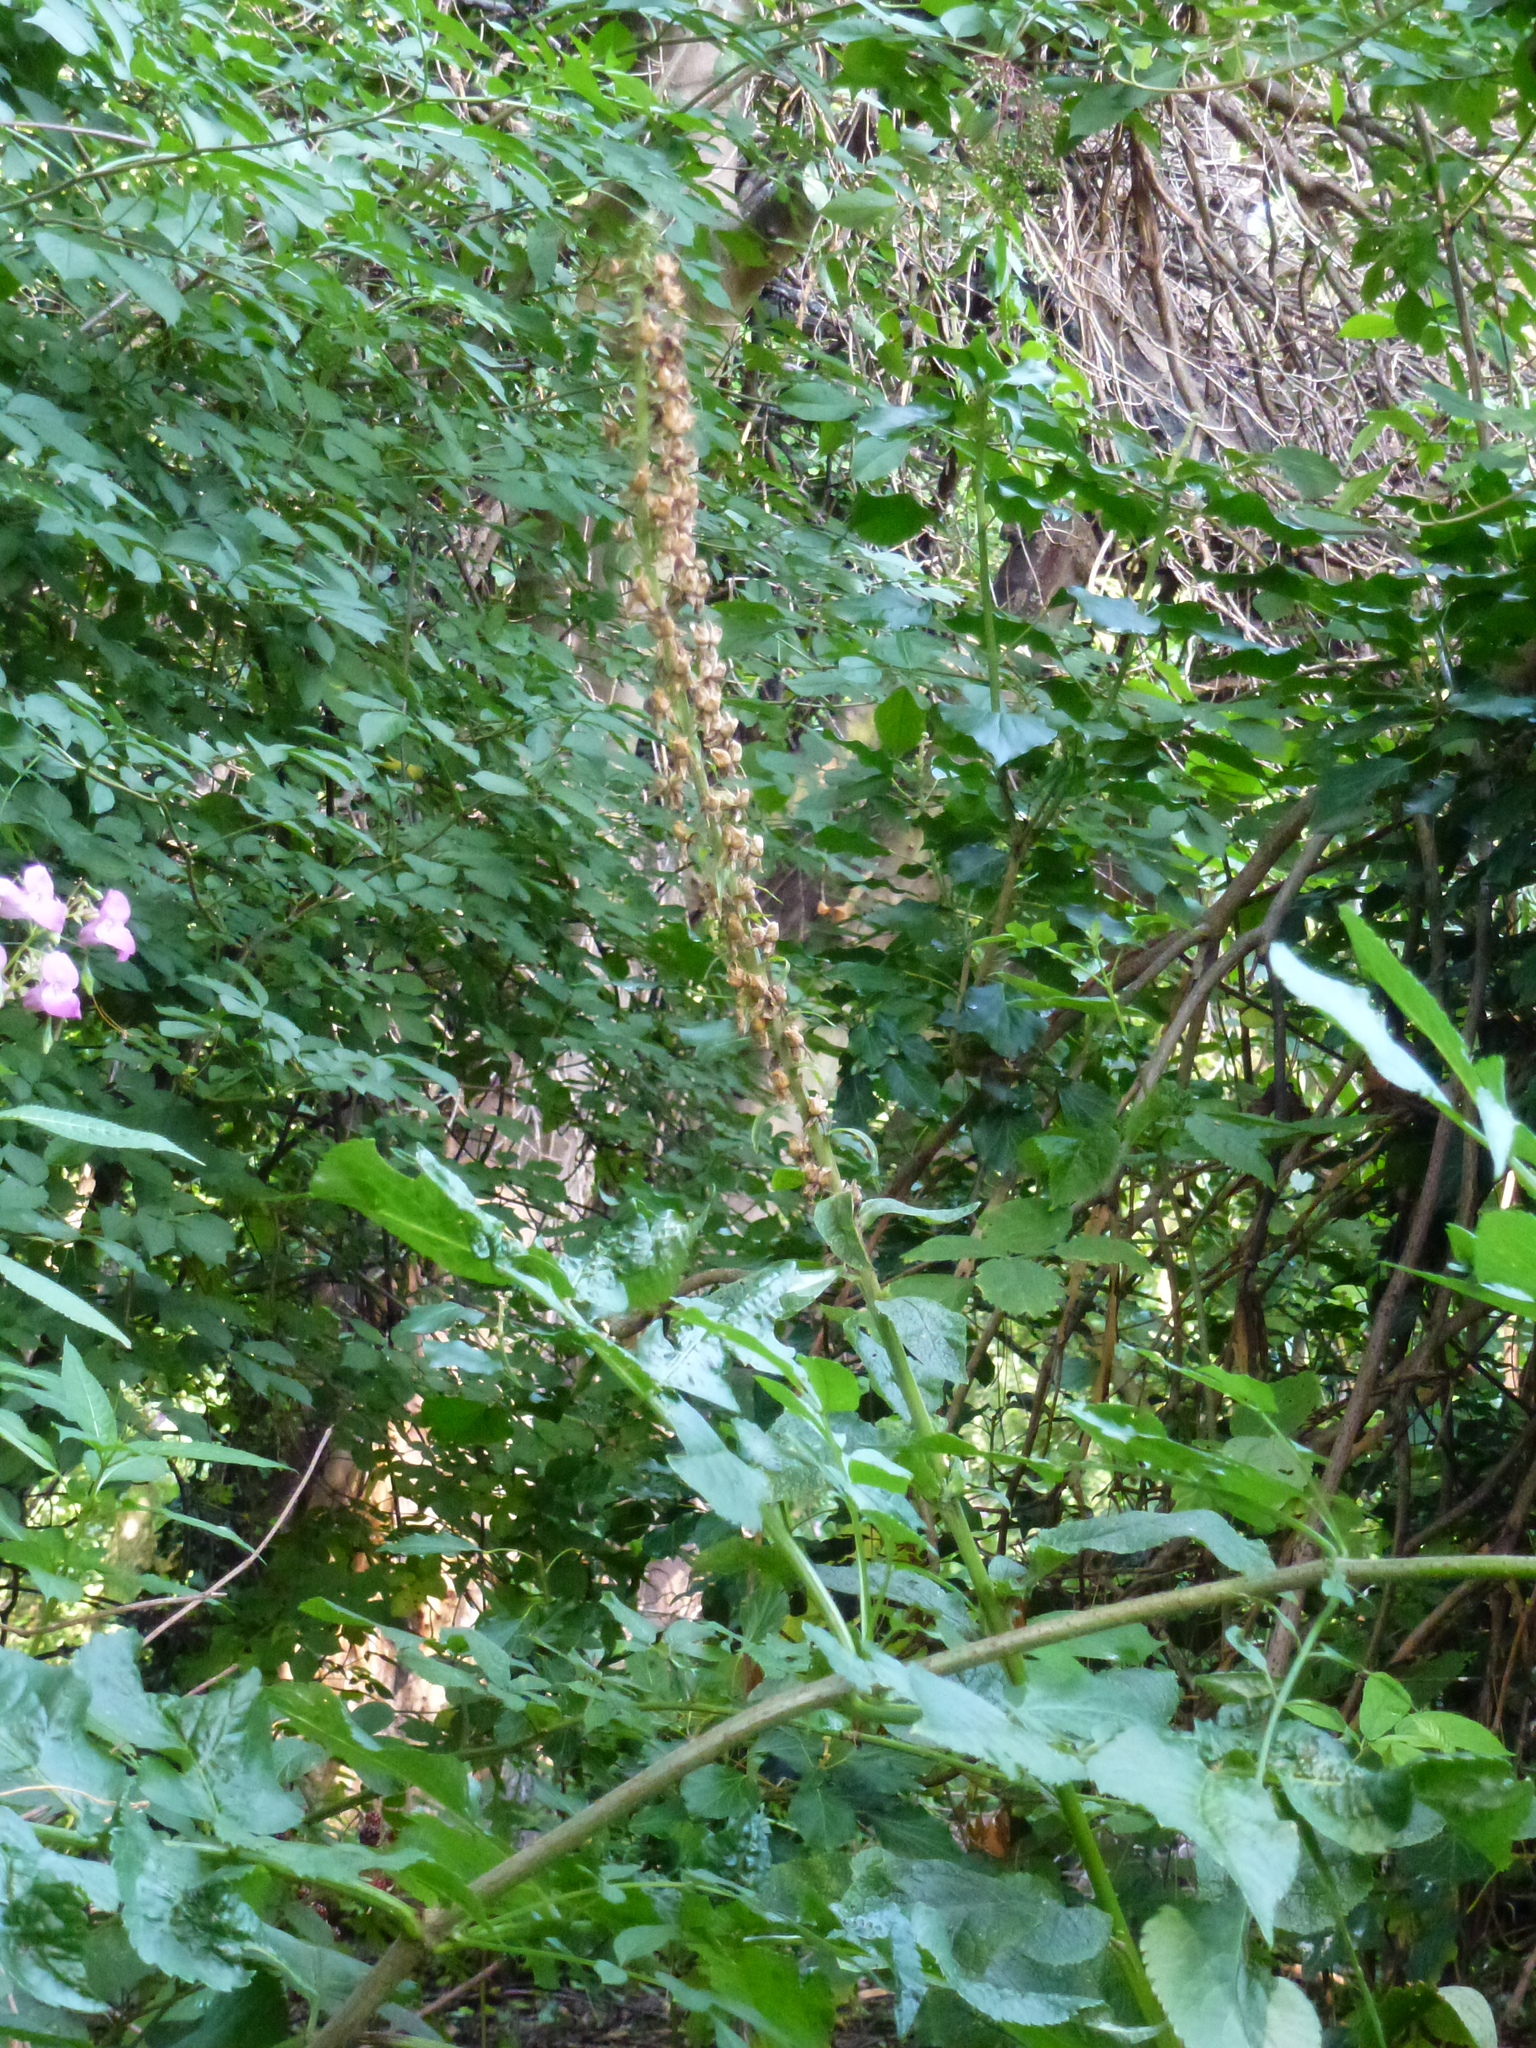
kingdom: Plantae
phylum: Tracheophyta
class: Magnoliopsida
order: Lamiales
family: Plantaginaceae
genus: Digitalis
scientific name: Digitalis purpurea
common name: Foxglove
